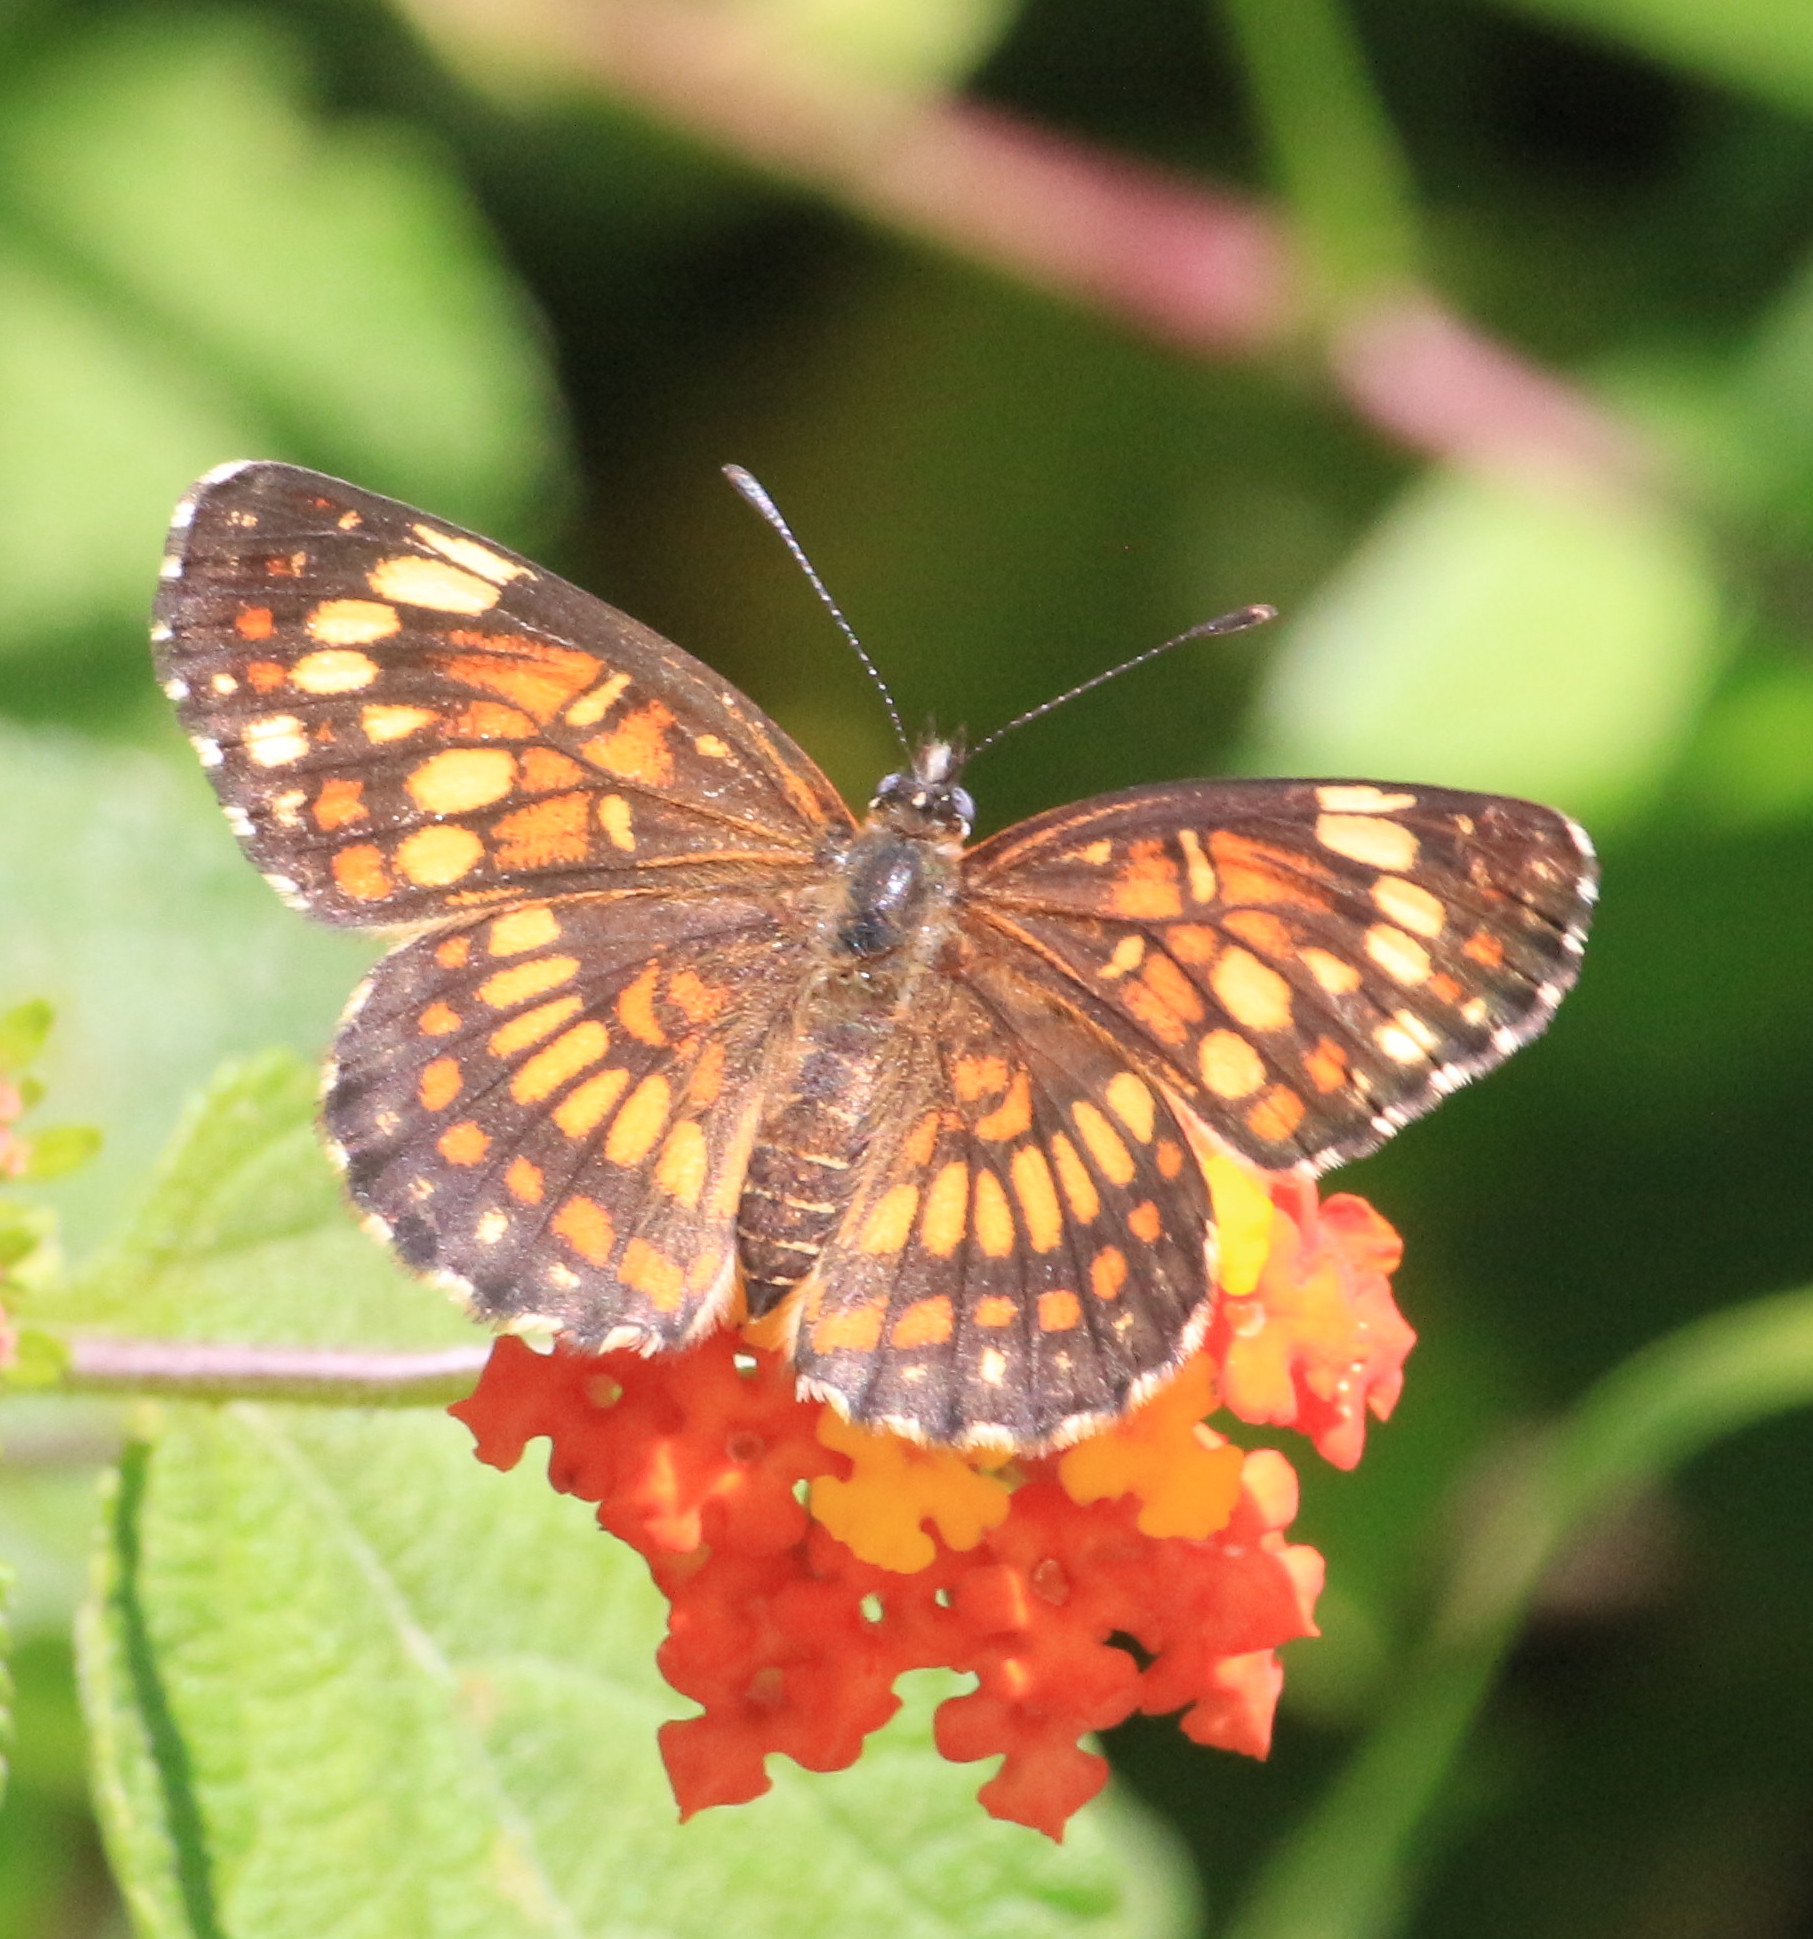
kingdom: Animalia
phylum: Arthropoda
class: Insecta
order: Lepidoptera
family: Nymphalidae
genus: Thessalia
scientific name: Thessalia theona
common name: Nymphalid moth
